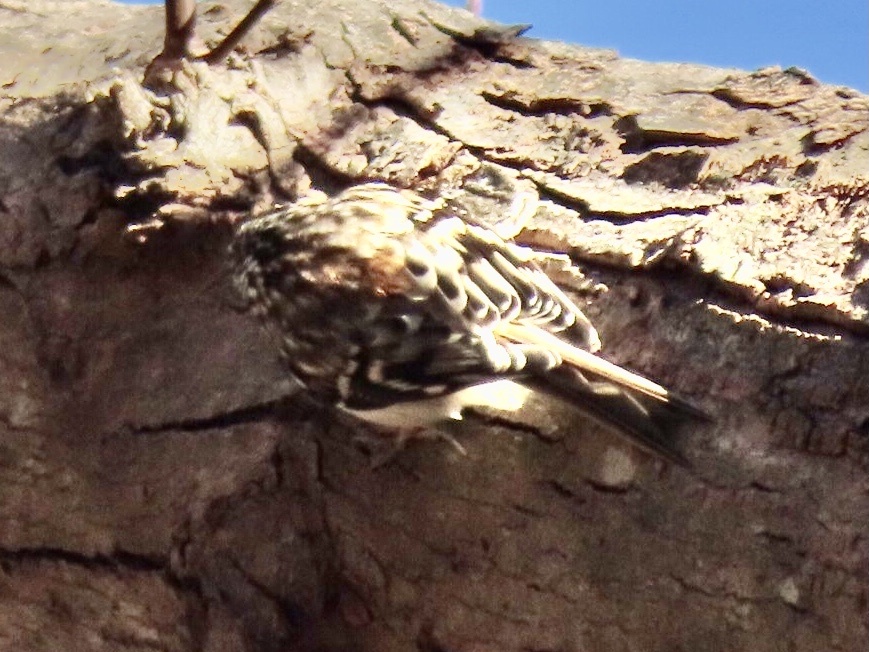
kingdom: Animalia
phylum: Chordata
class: Aves
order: Passeriformes
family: Certhiidae
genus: Certhia
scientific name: Certhia americana
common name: Brown creeper
